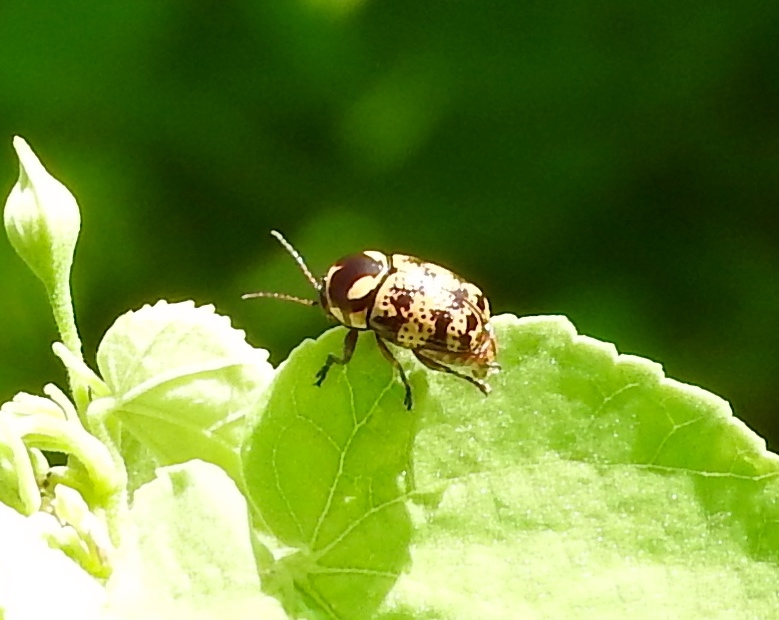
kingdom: Animalia
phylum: Arthropoda
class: Insecta
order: Coleoptera
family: Chrysomelidae
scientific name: Chrysomelidae
